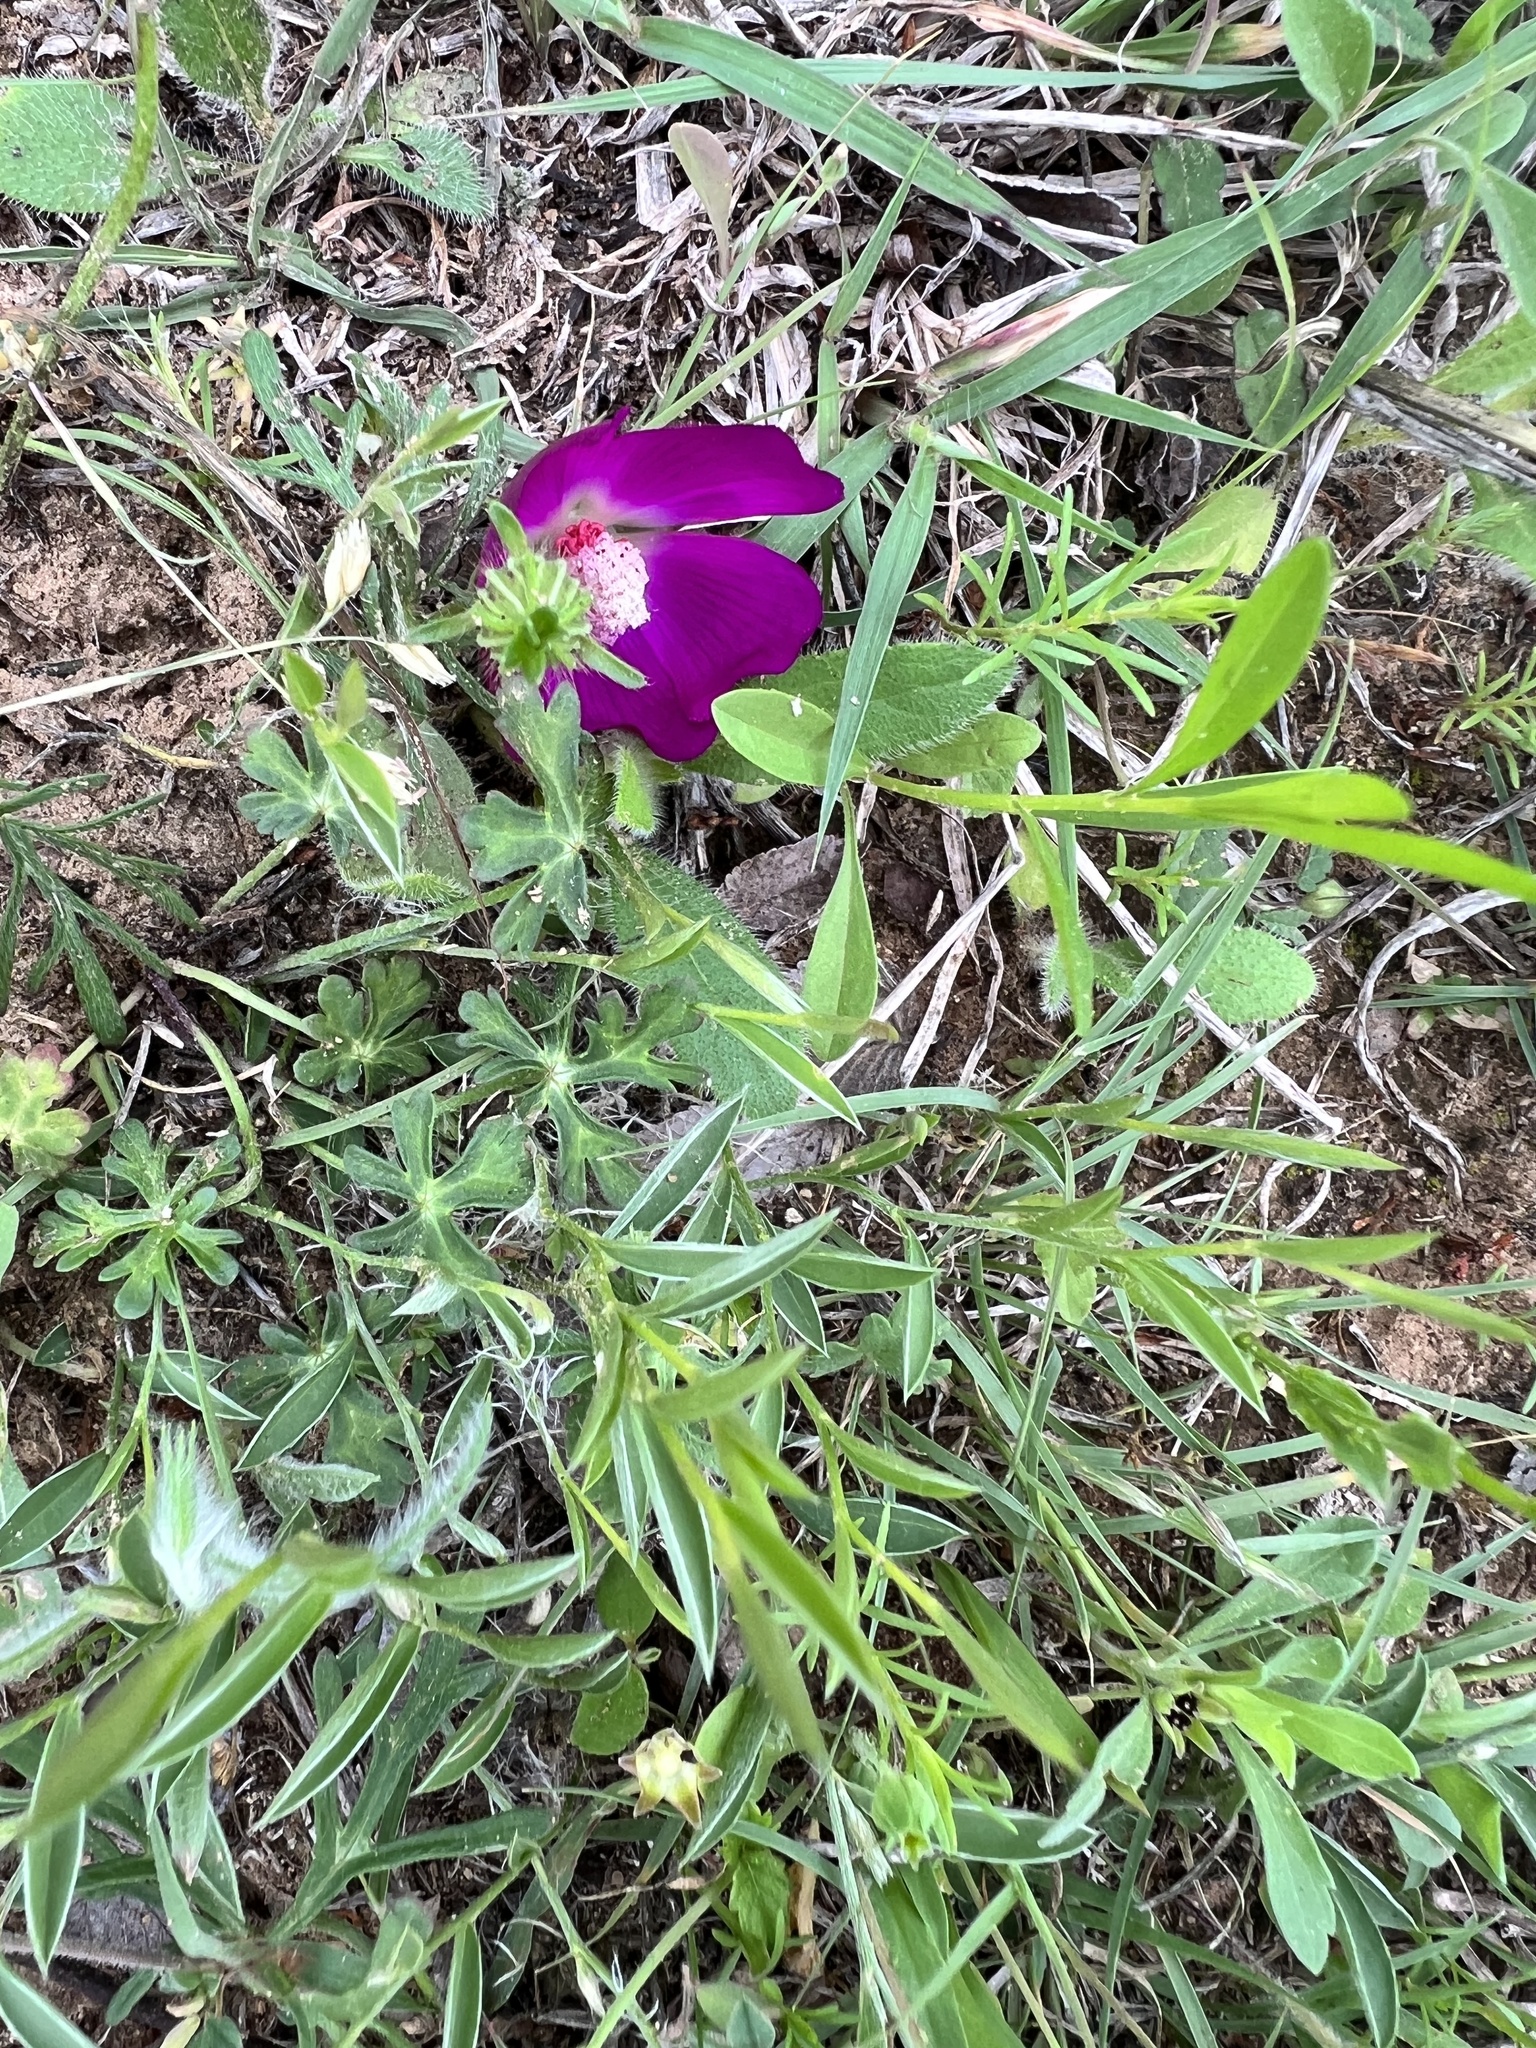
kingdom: Plantae
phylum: Tracheophyta
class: Magnoliopsida
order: Malvales
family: Malvaceae
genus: Callirhoe
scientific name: Callirhoe involucrata
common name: Purple poppy-mallow
